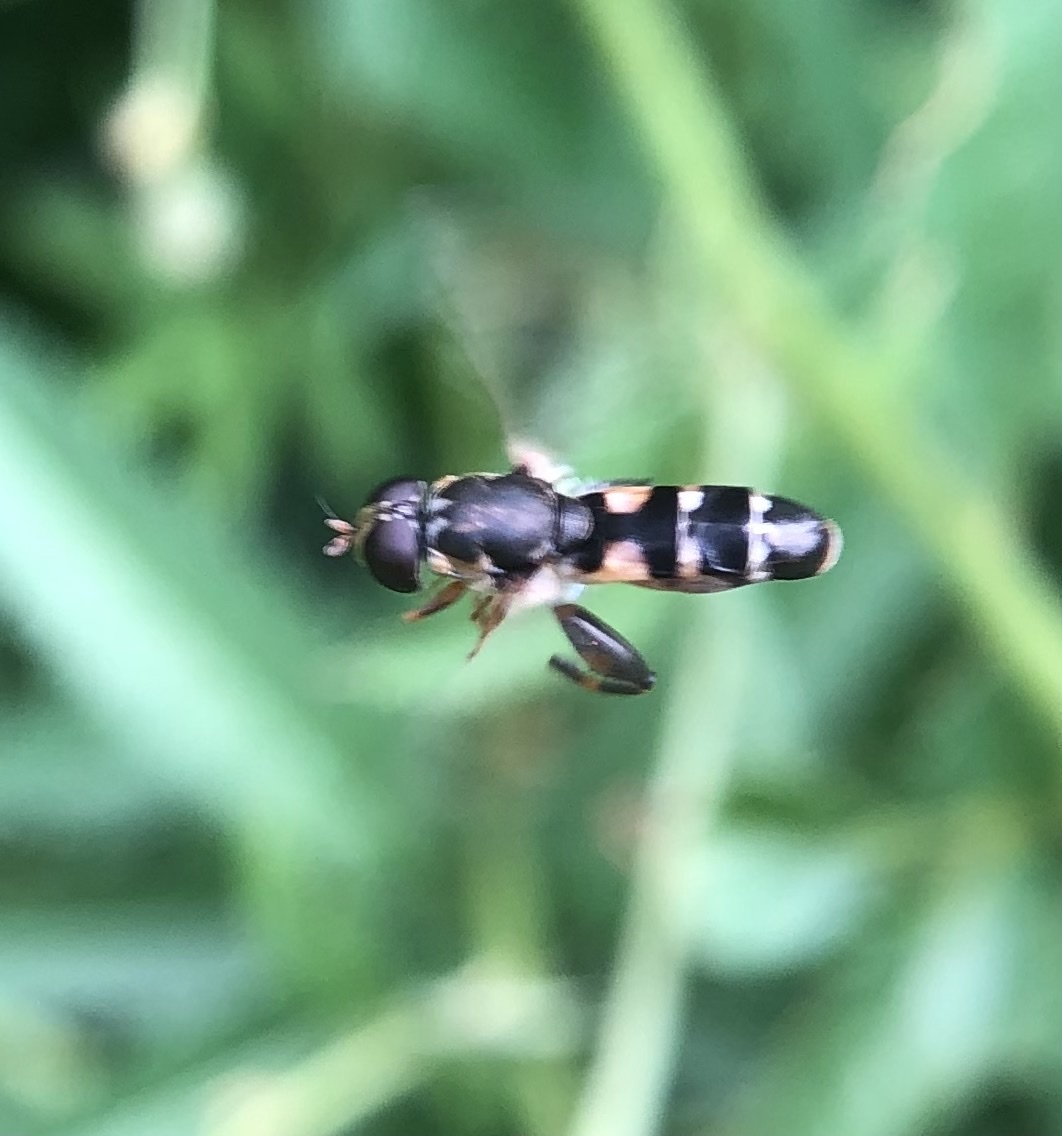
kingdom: Animalia
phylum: Arthropoda
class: Insecta
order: Diptera
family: Syrphidae
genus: Syritta
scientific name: Syritta pipiens
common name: Hover fly
